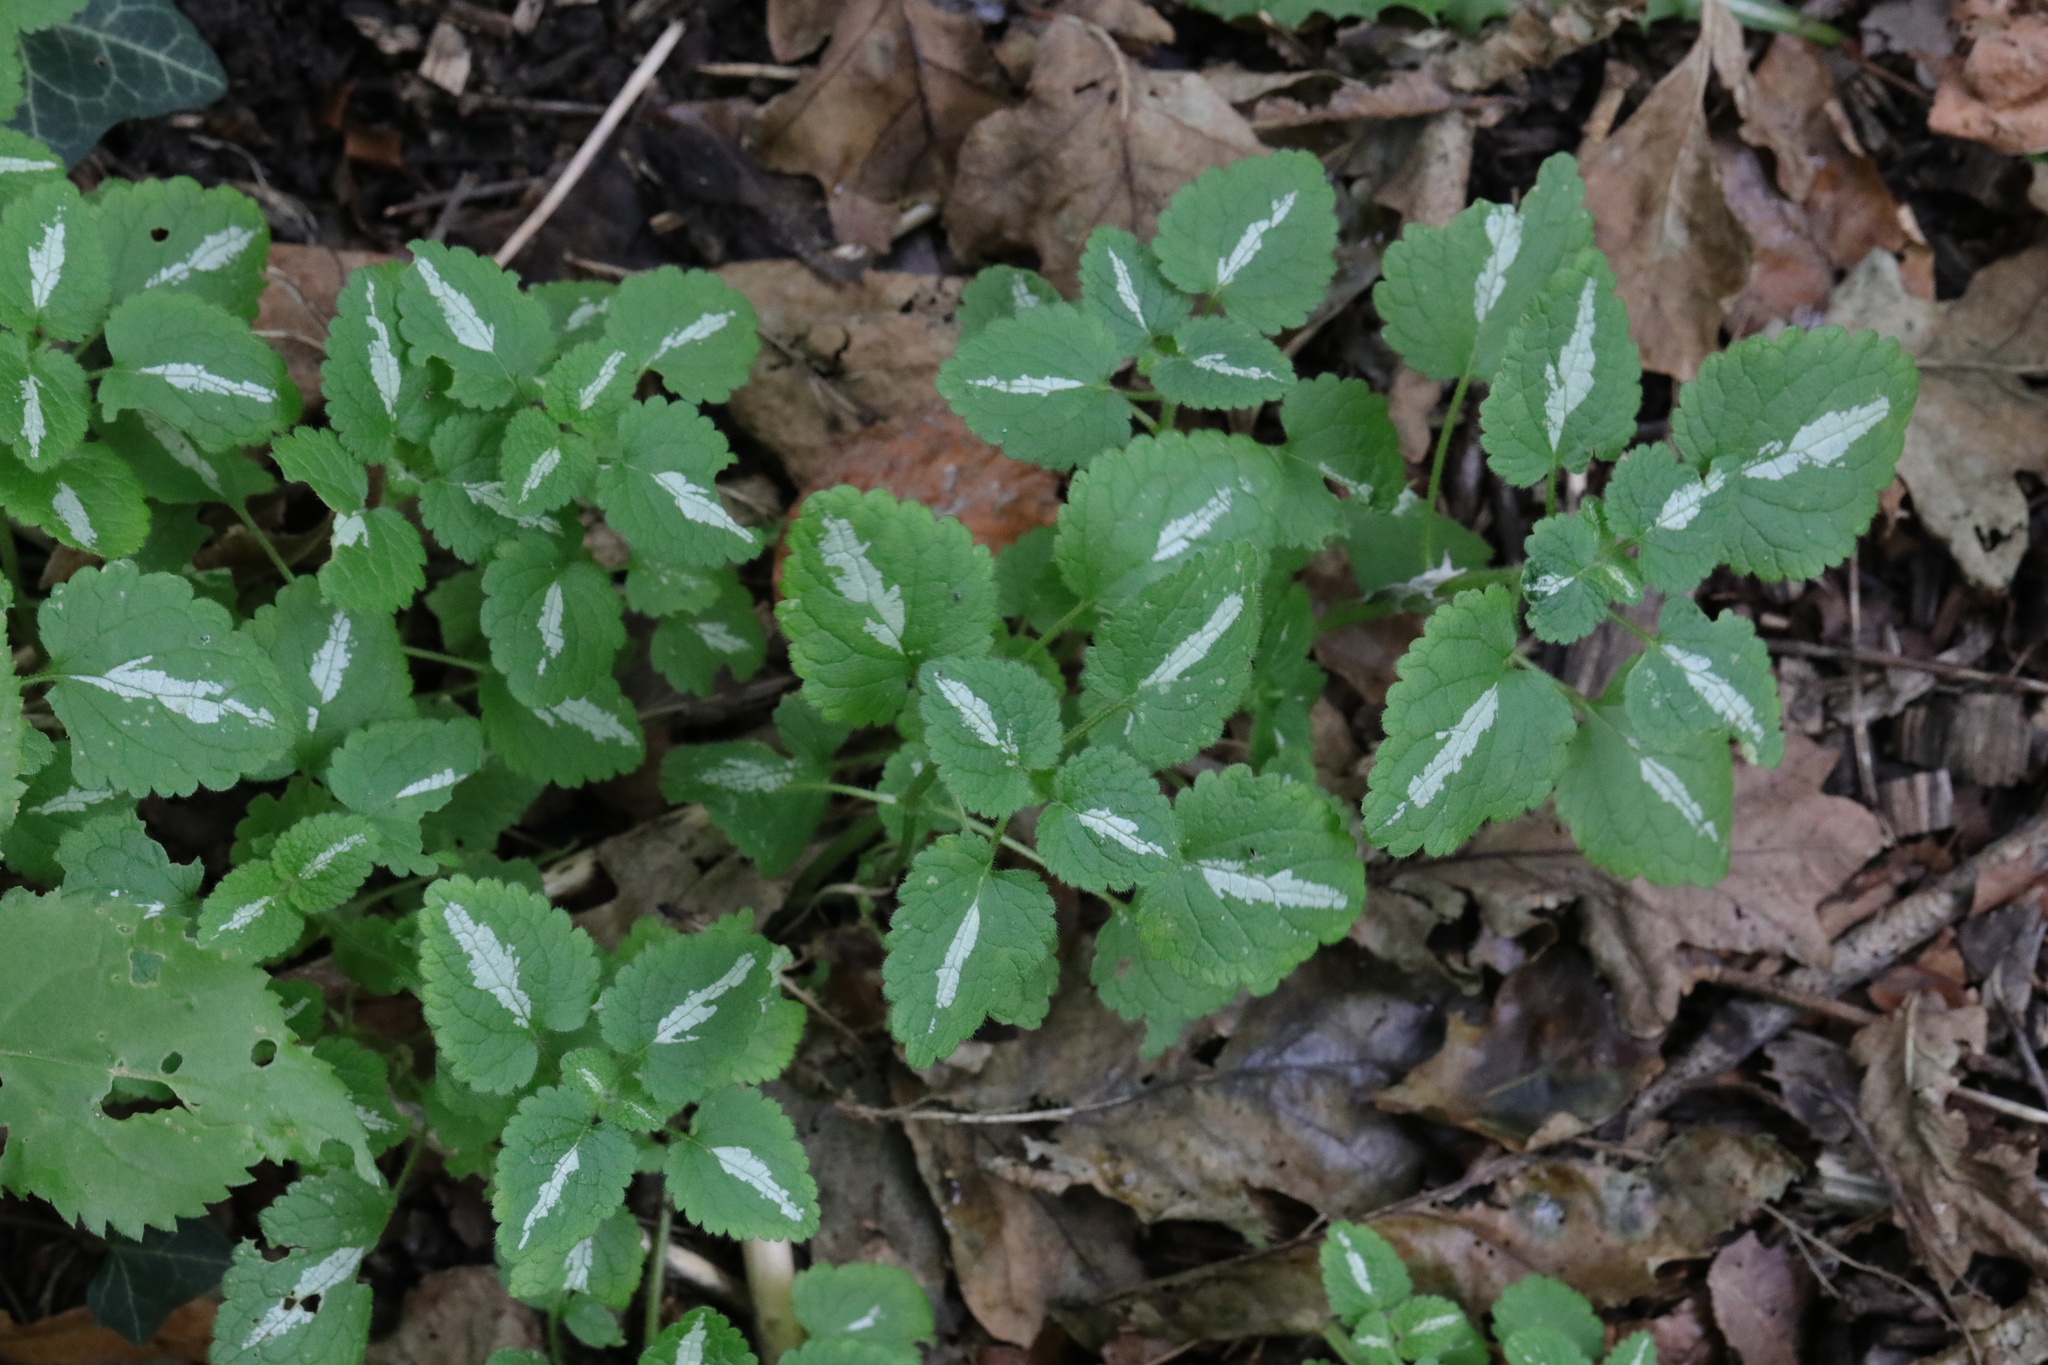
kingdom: Plantae
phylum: Tracheophyta
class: Magnoliopsida
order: Lamiales
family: Lamiaceae
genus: Lamium
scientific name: Lamium maculatum
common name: Spotted dead-nettle
